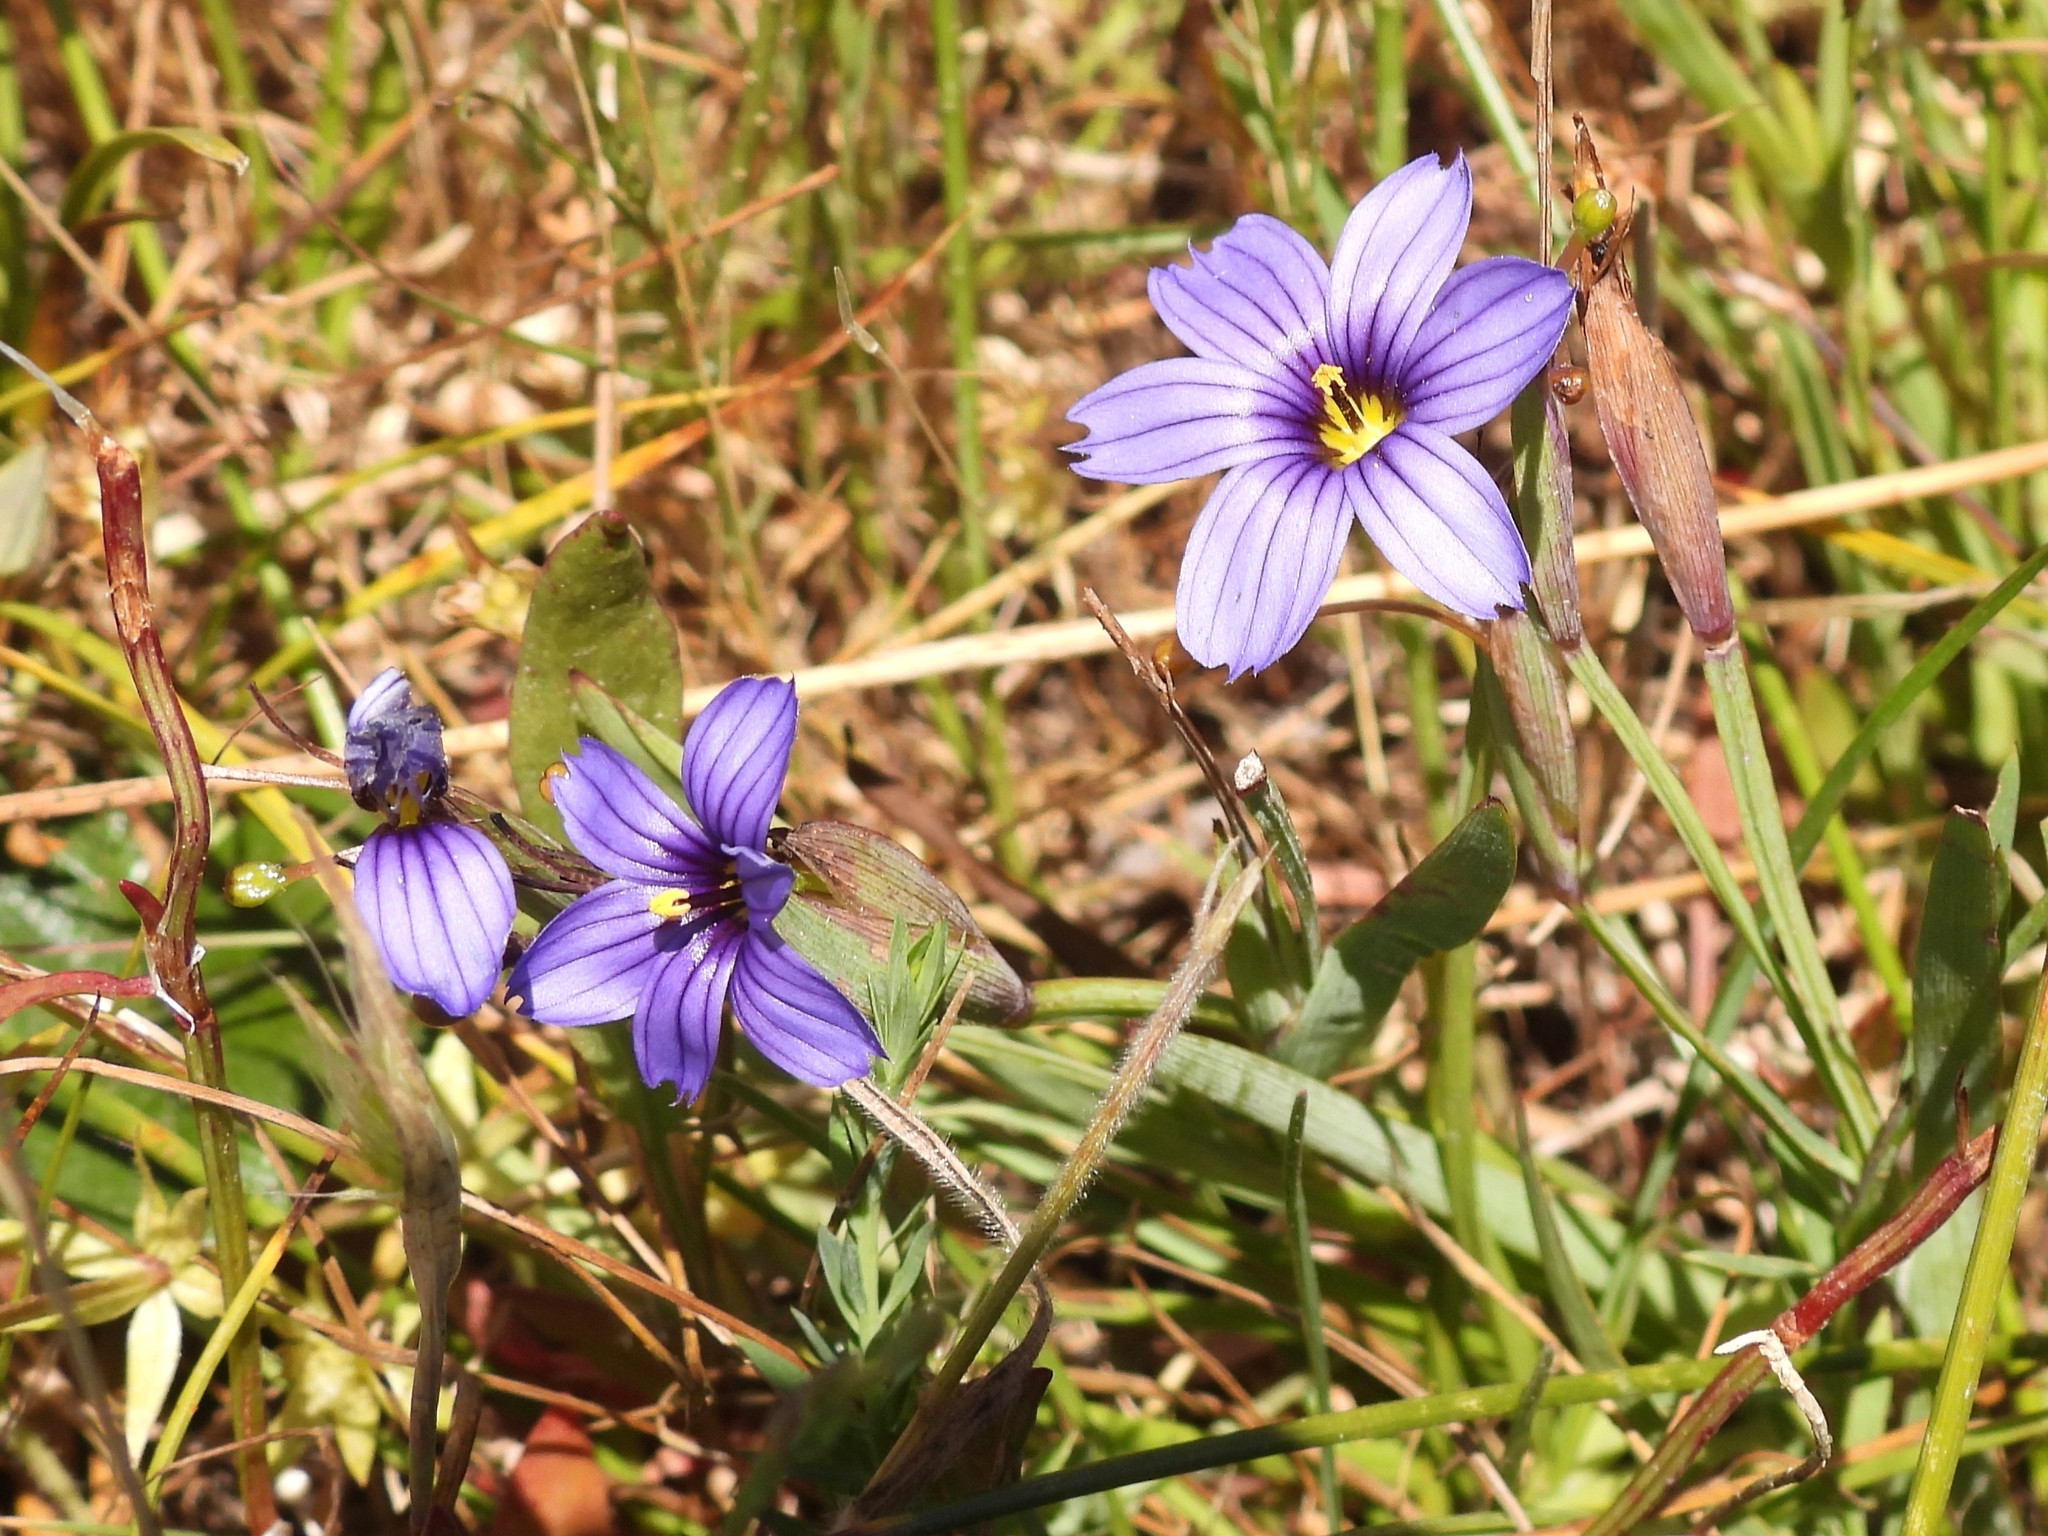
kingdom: Plantae
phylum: Tracheophyta
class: Liliopsida
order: Asparagales
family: Iridaceae
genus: Sisyrinchium
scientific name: Sisyrinchium bellum
